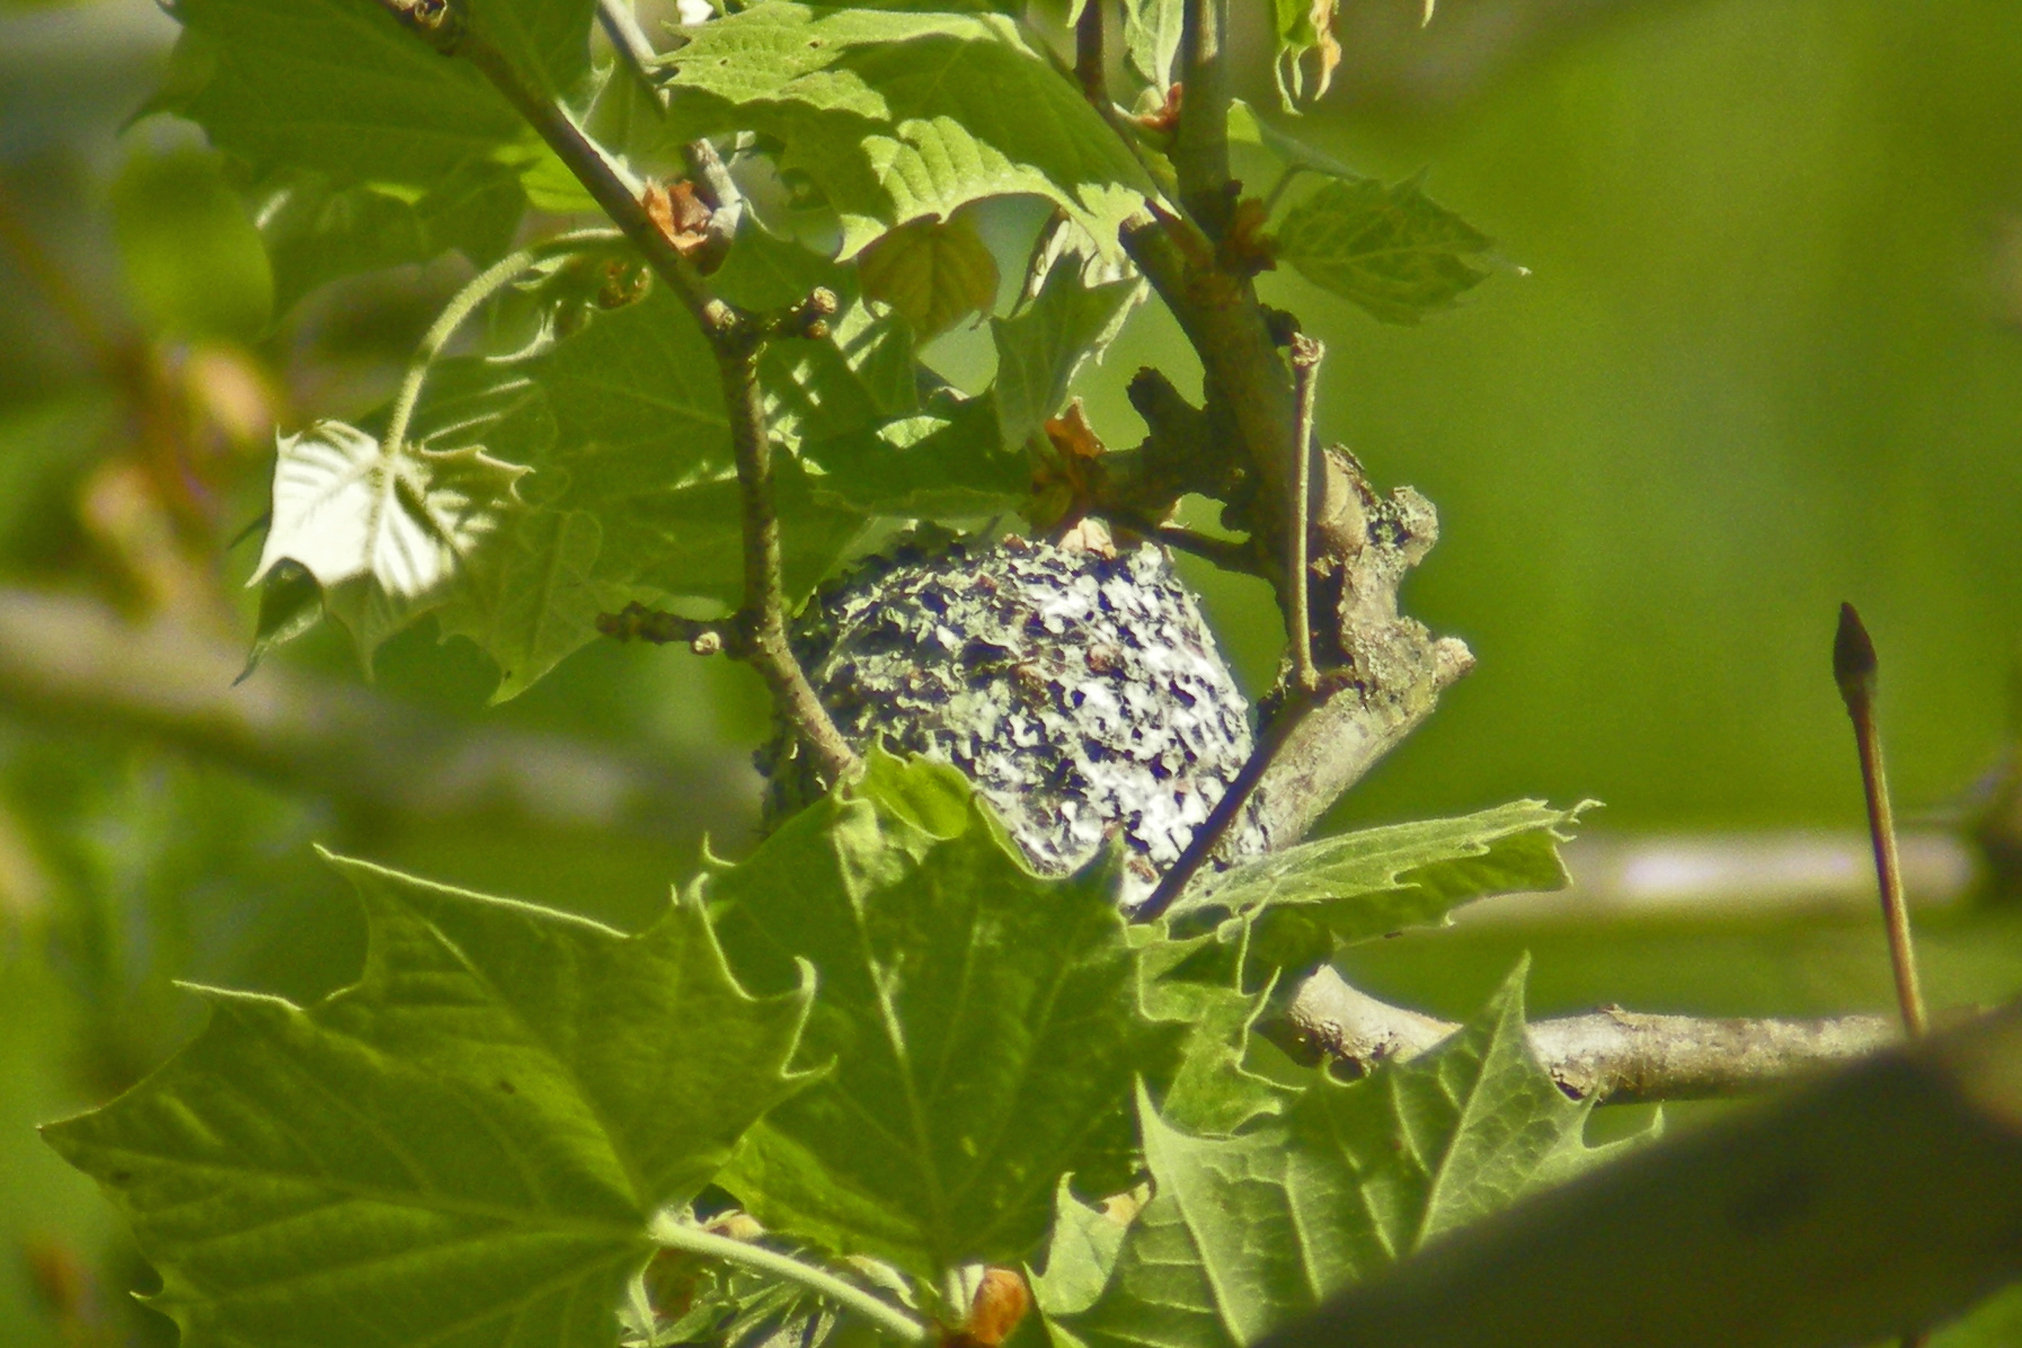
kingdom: Animalia
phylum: Chordata
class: Aves
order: Passeriformes
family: Polioptilidae
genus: Polioptila
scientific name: Polioptila caerulea
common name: Blue-gray gnatcatcher
